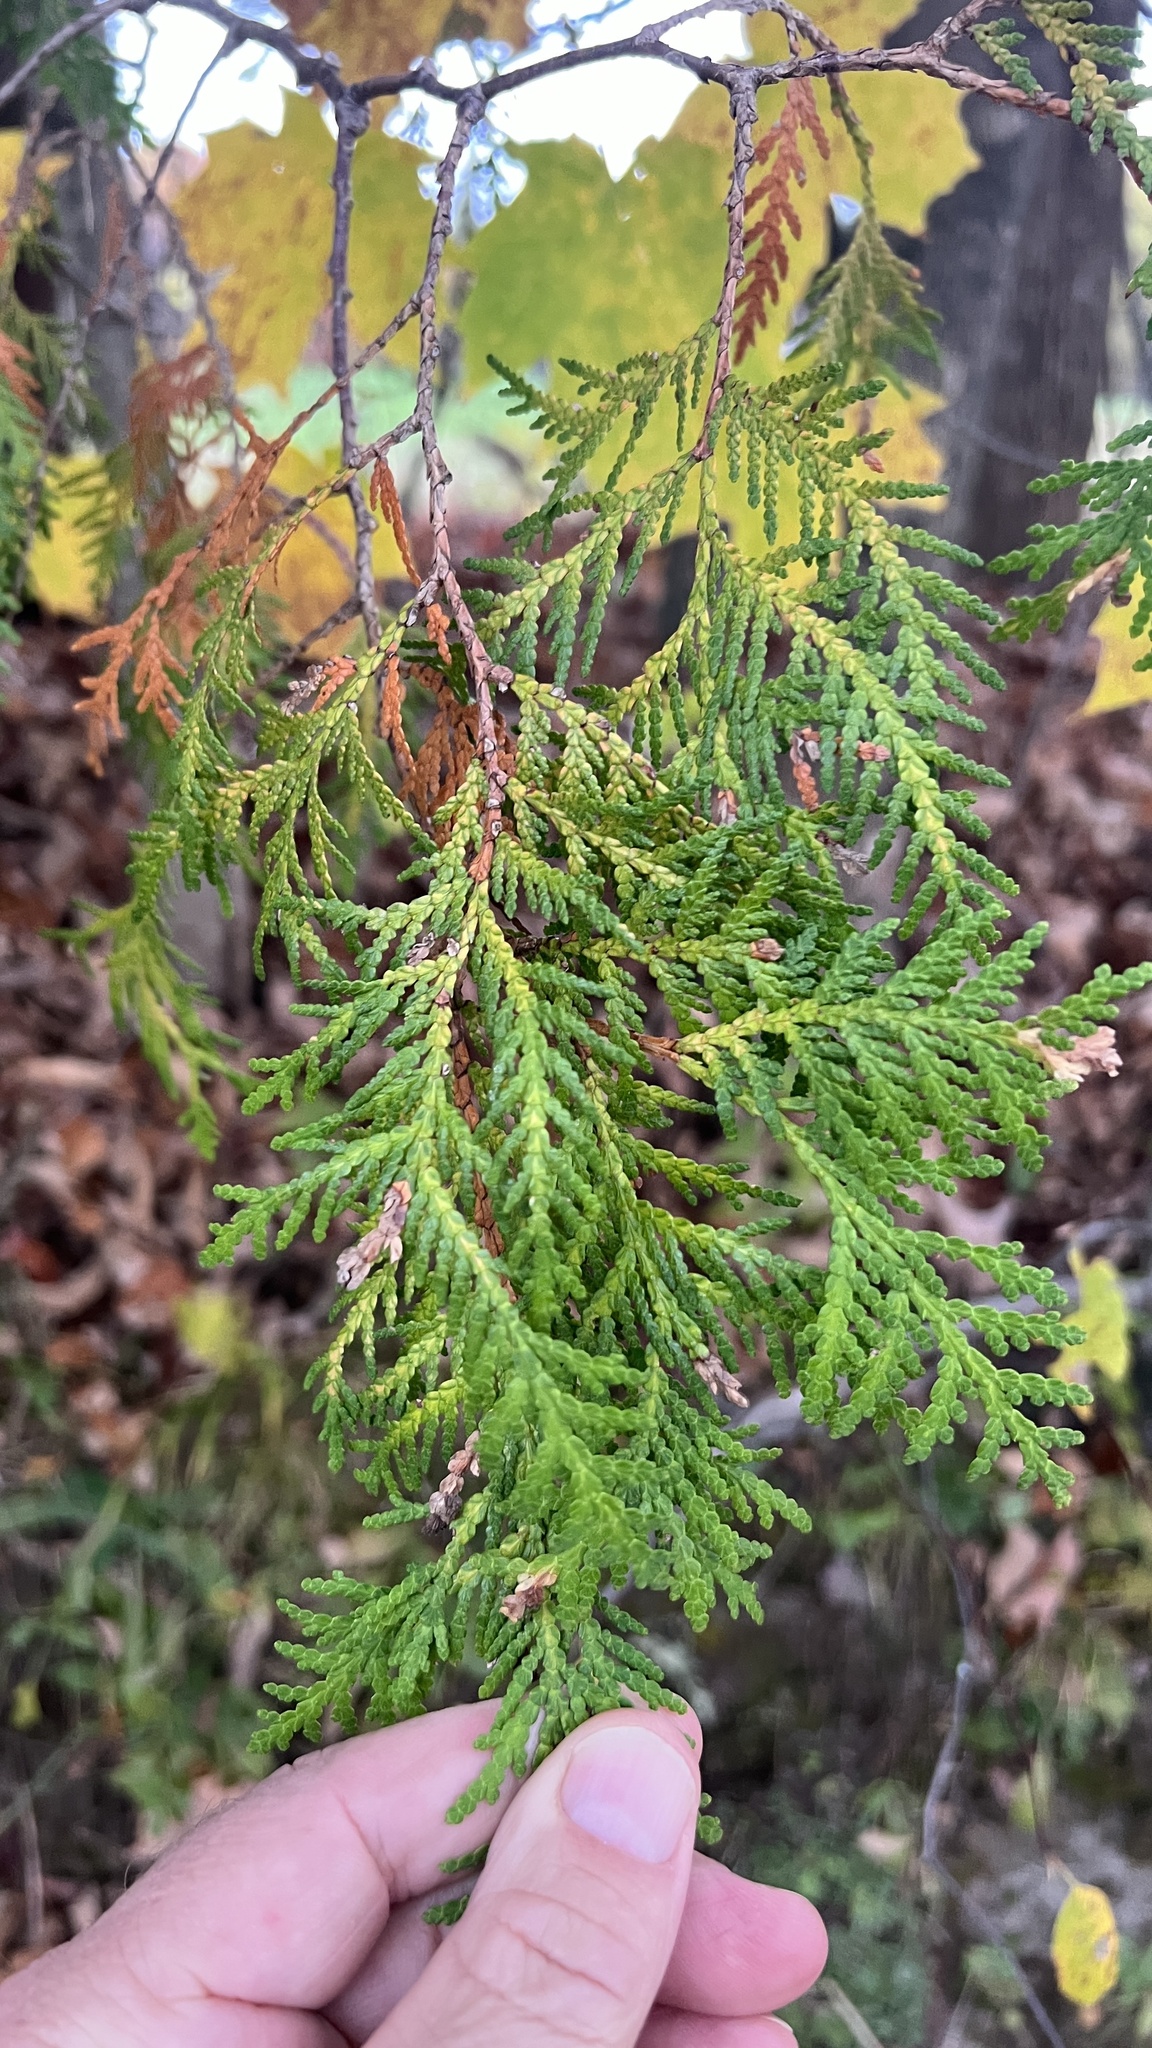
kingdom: Plantae
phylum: Tracheophyta
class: Pinopsida
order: Pinales
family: Cupressaceae
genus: Thuja
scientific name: Thuja occidentalis
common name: Northern white-cedar
